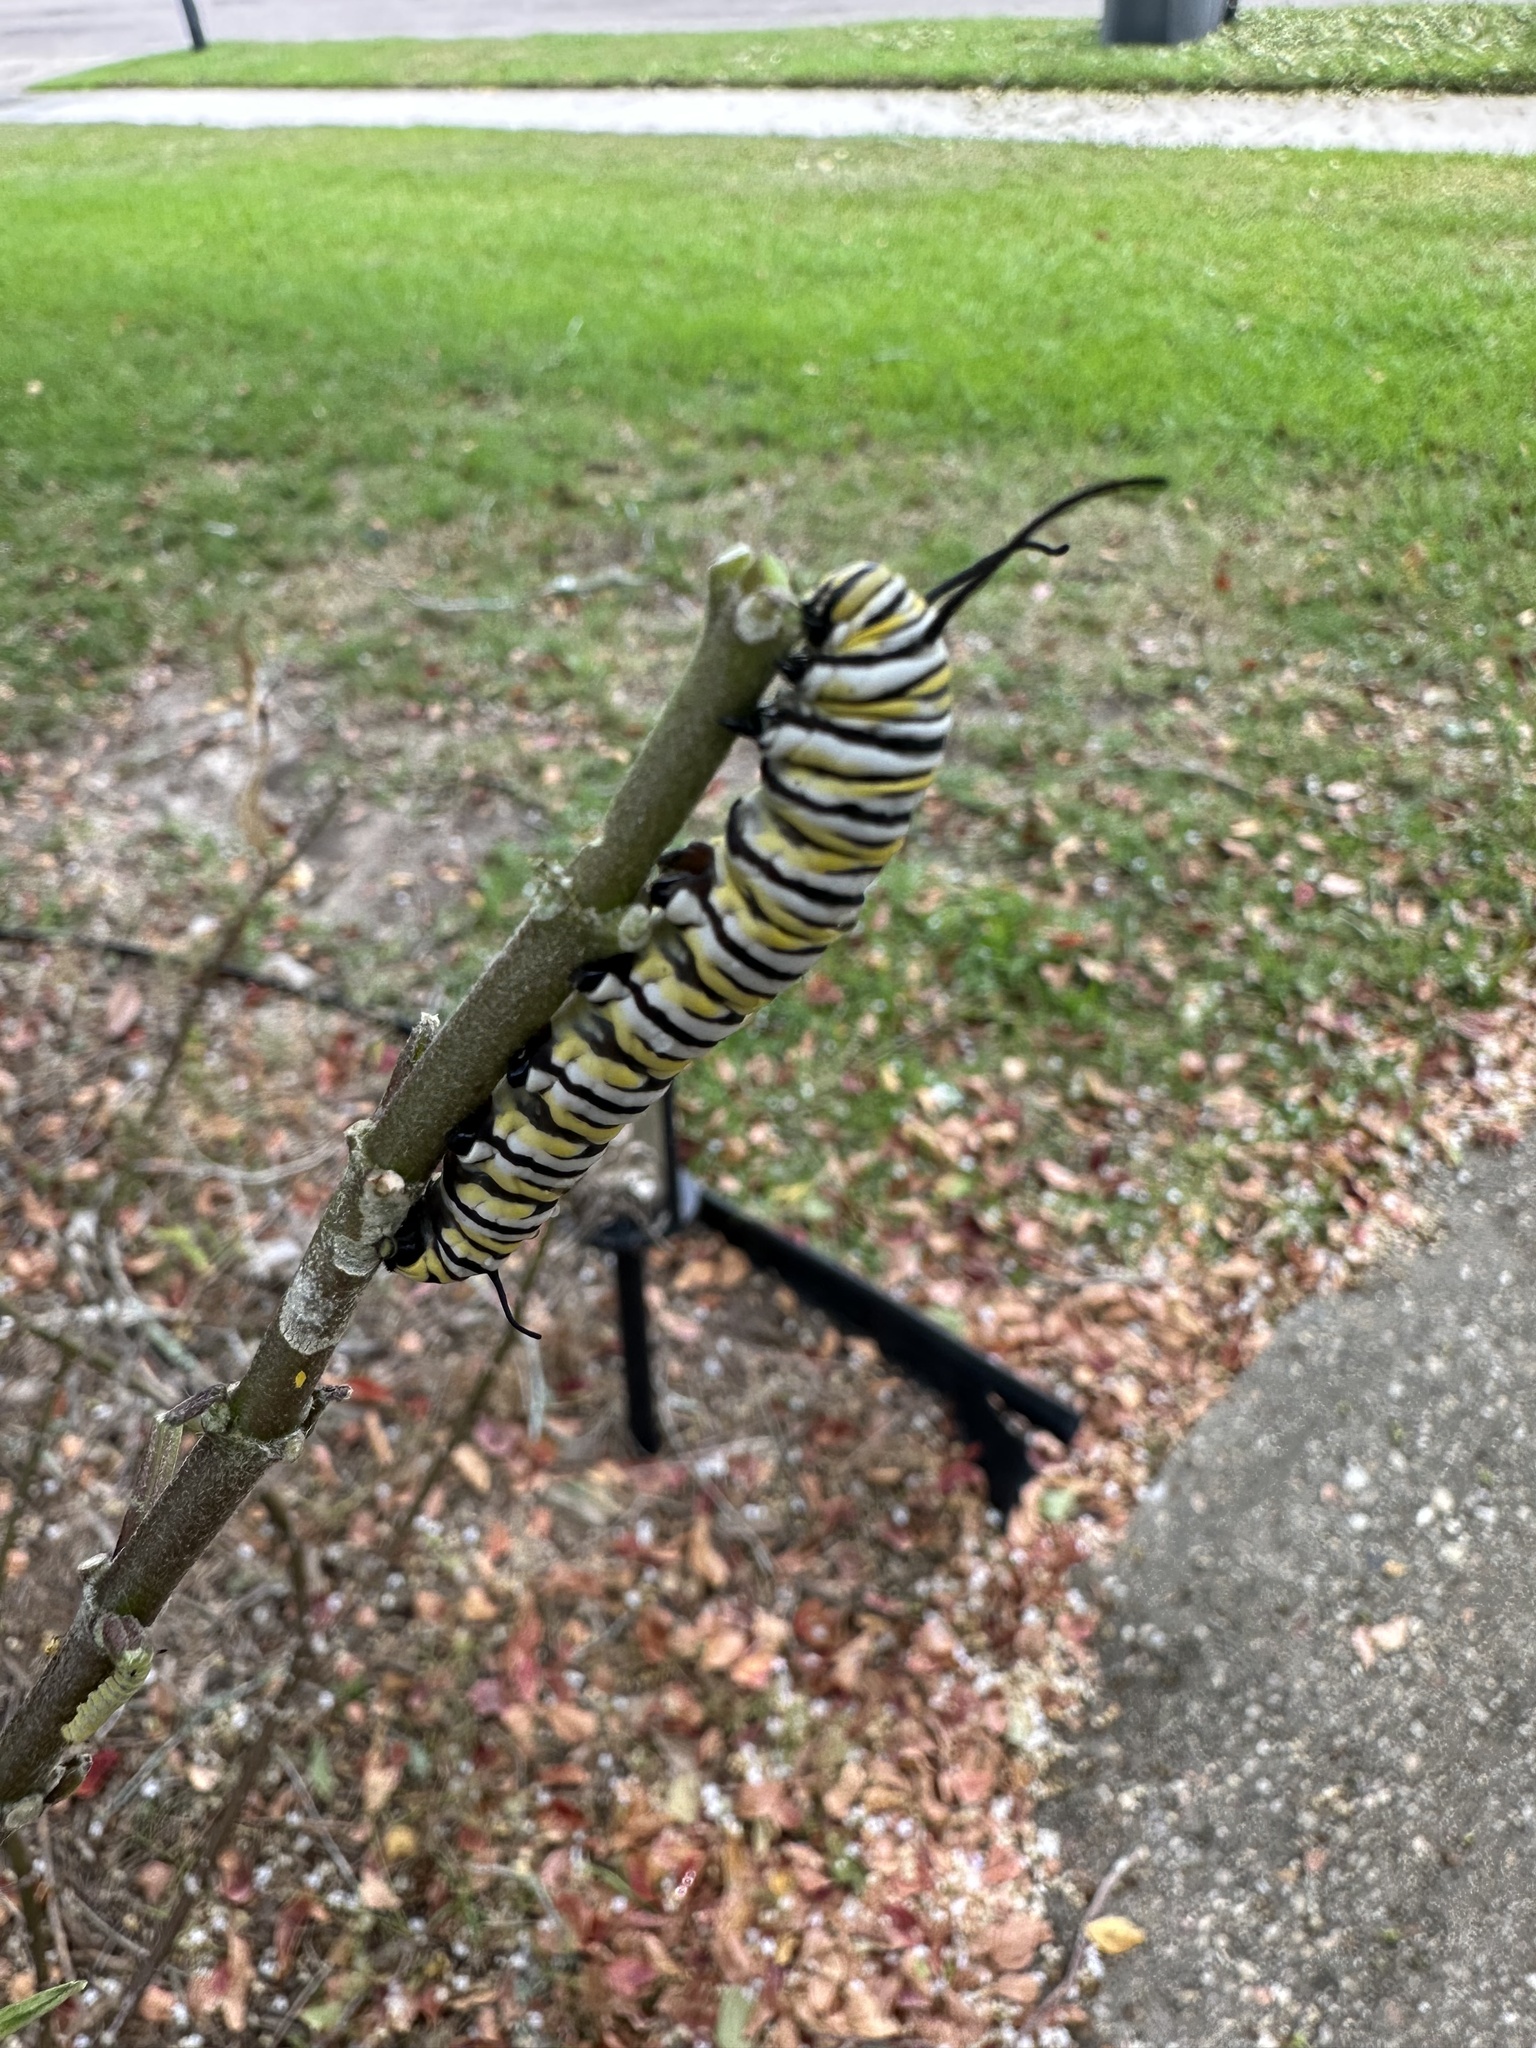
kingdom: Animalia
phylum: Arthropoda
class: Insecta
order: Lepidoptera
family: Nymphalidae
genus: Danaus
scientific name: Danaus plexippus
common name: Monarch
